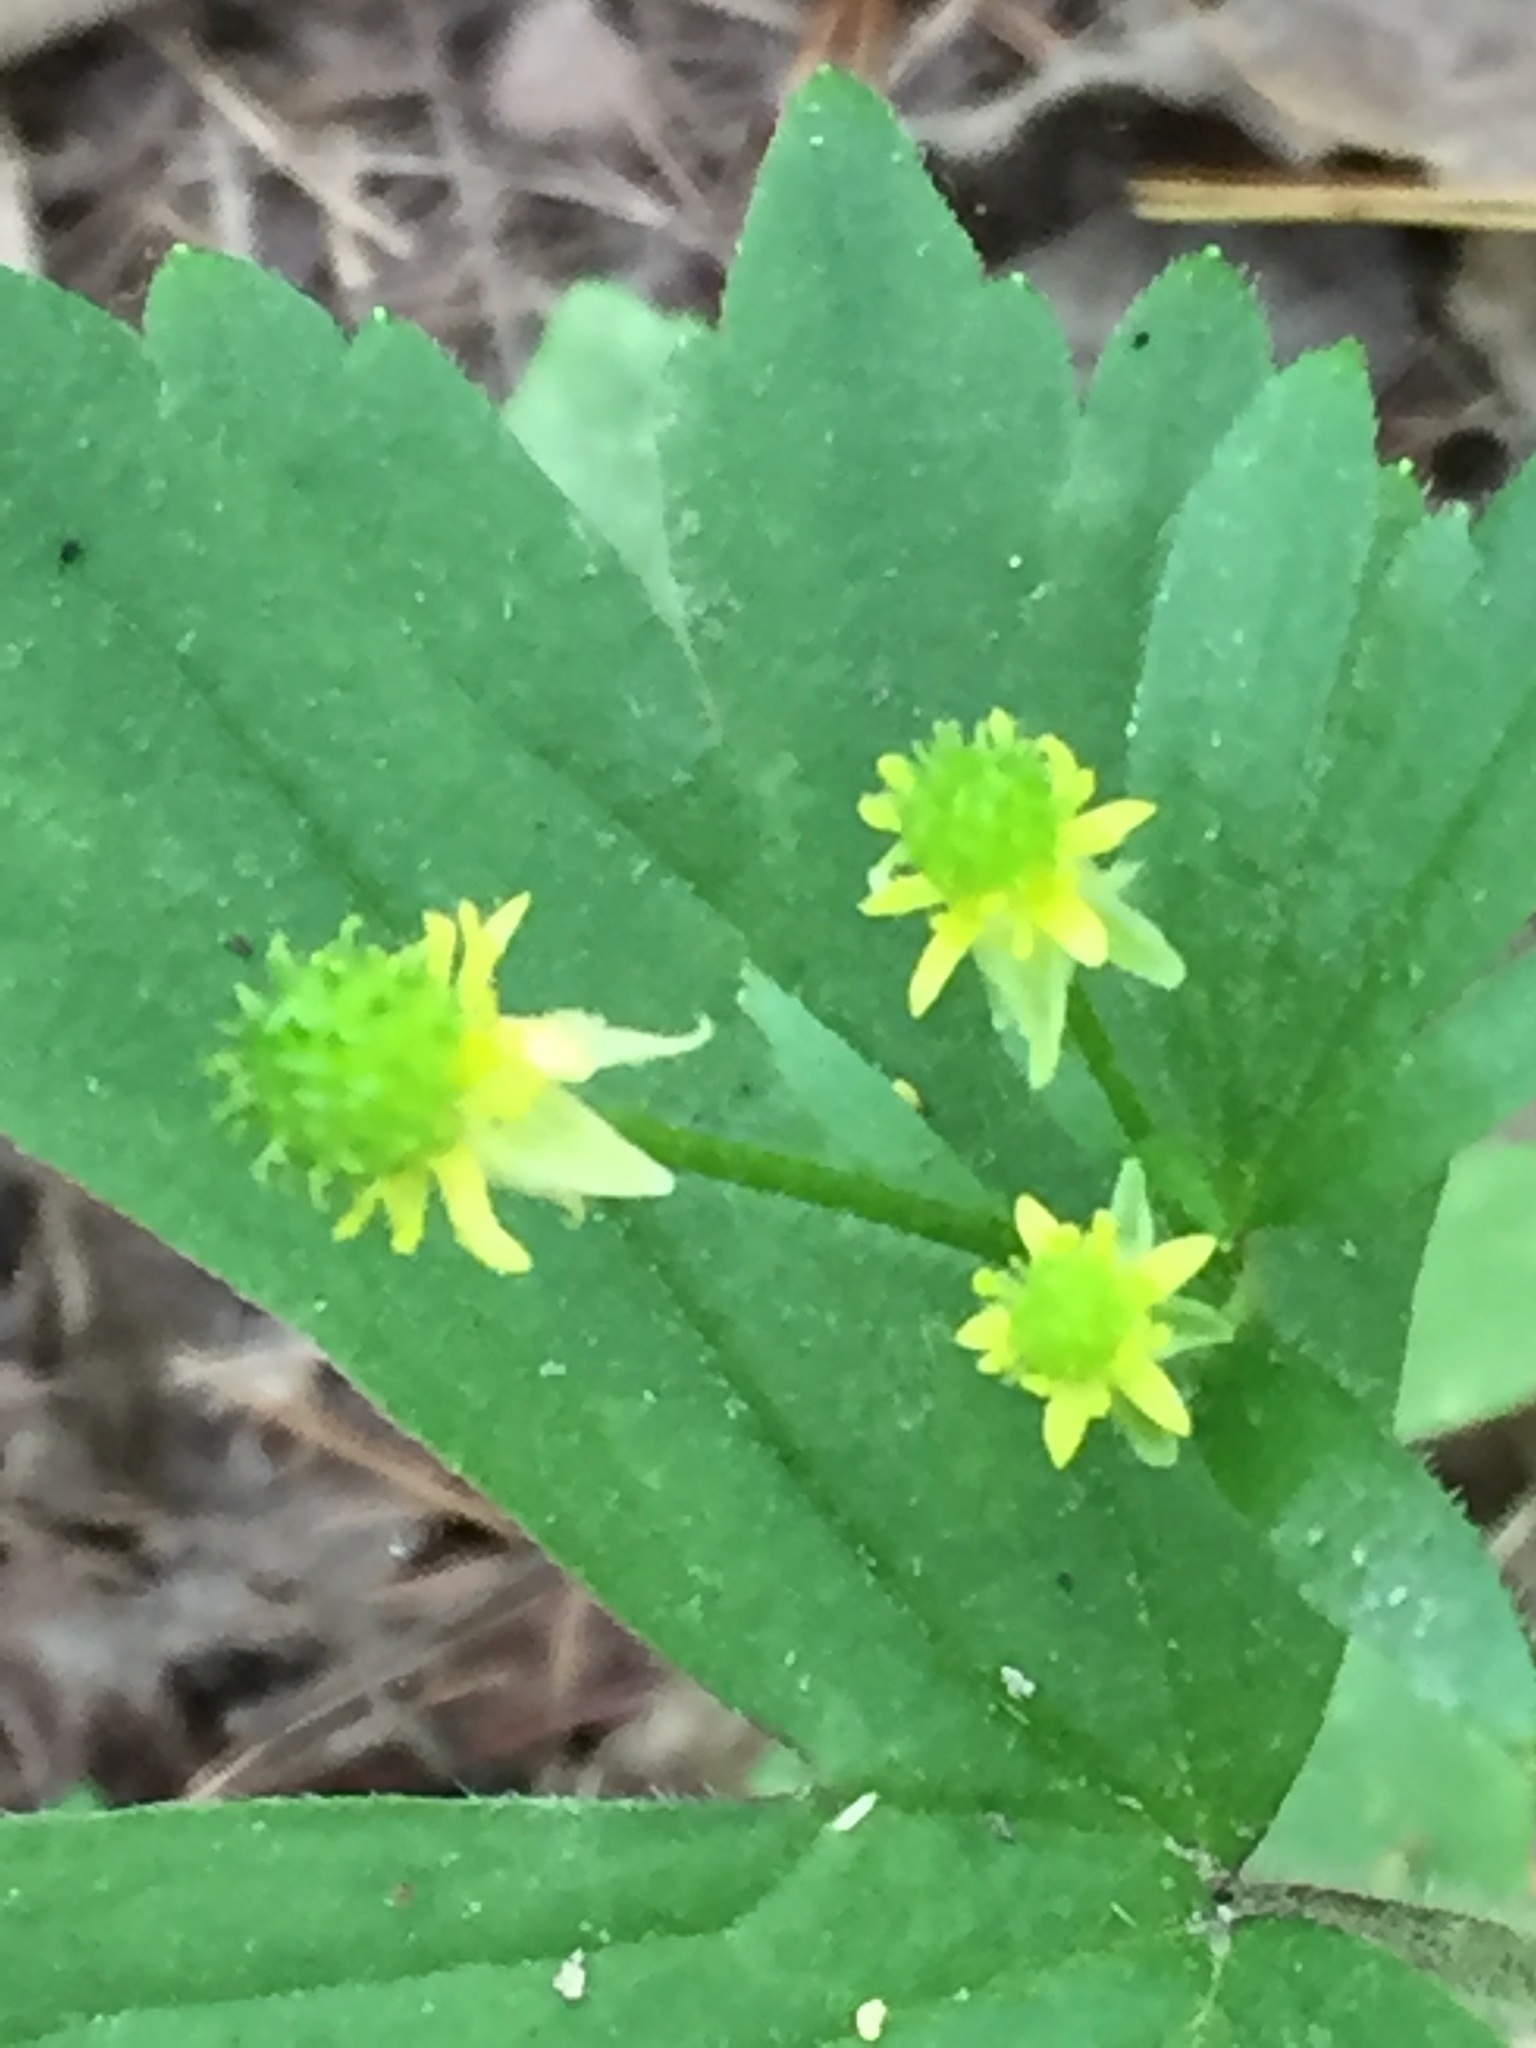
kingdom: Plantae
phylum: Tracheophyta
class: Magnoliopsida
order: Ranunculales
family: Ranunculaceae
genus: Ranunculus
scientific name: Ranunculus recurvatus
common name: Blisterwort
